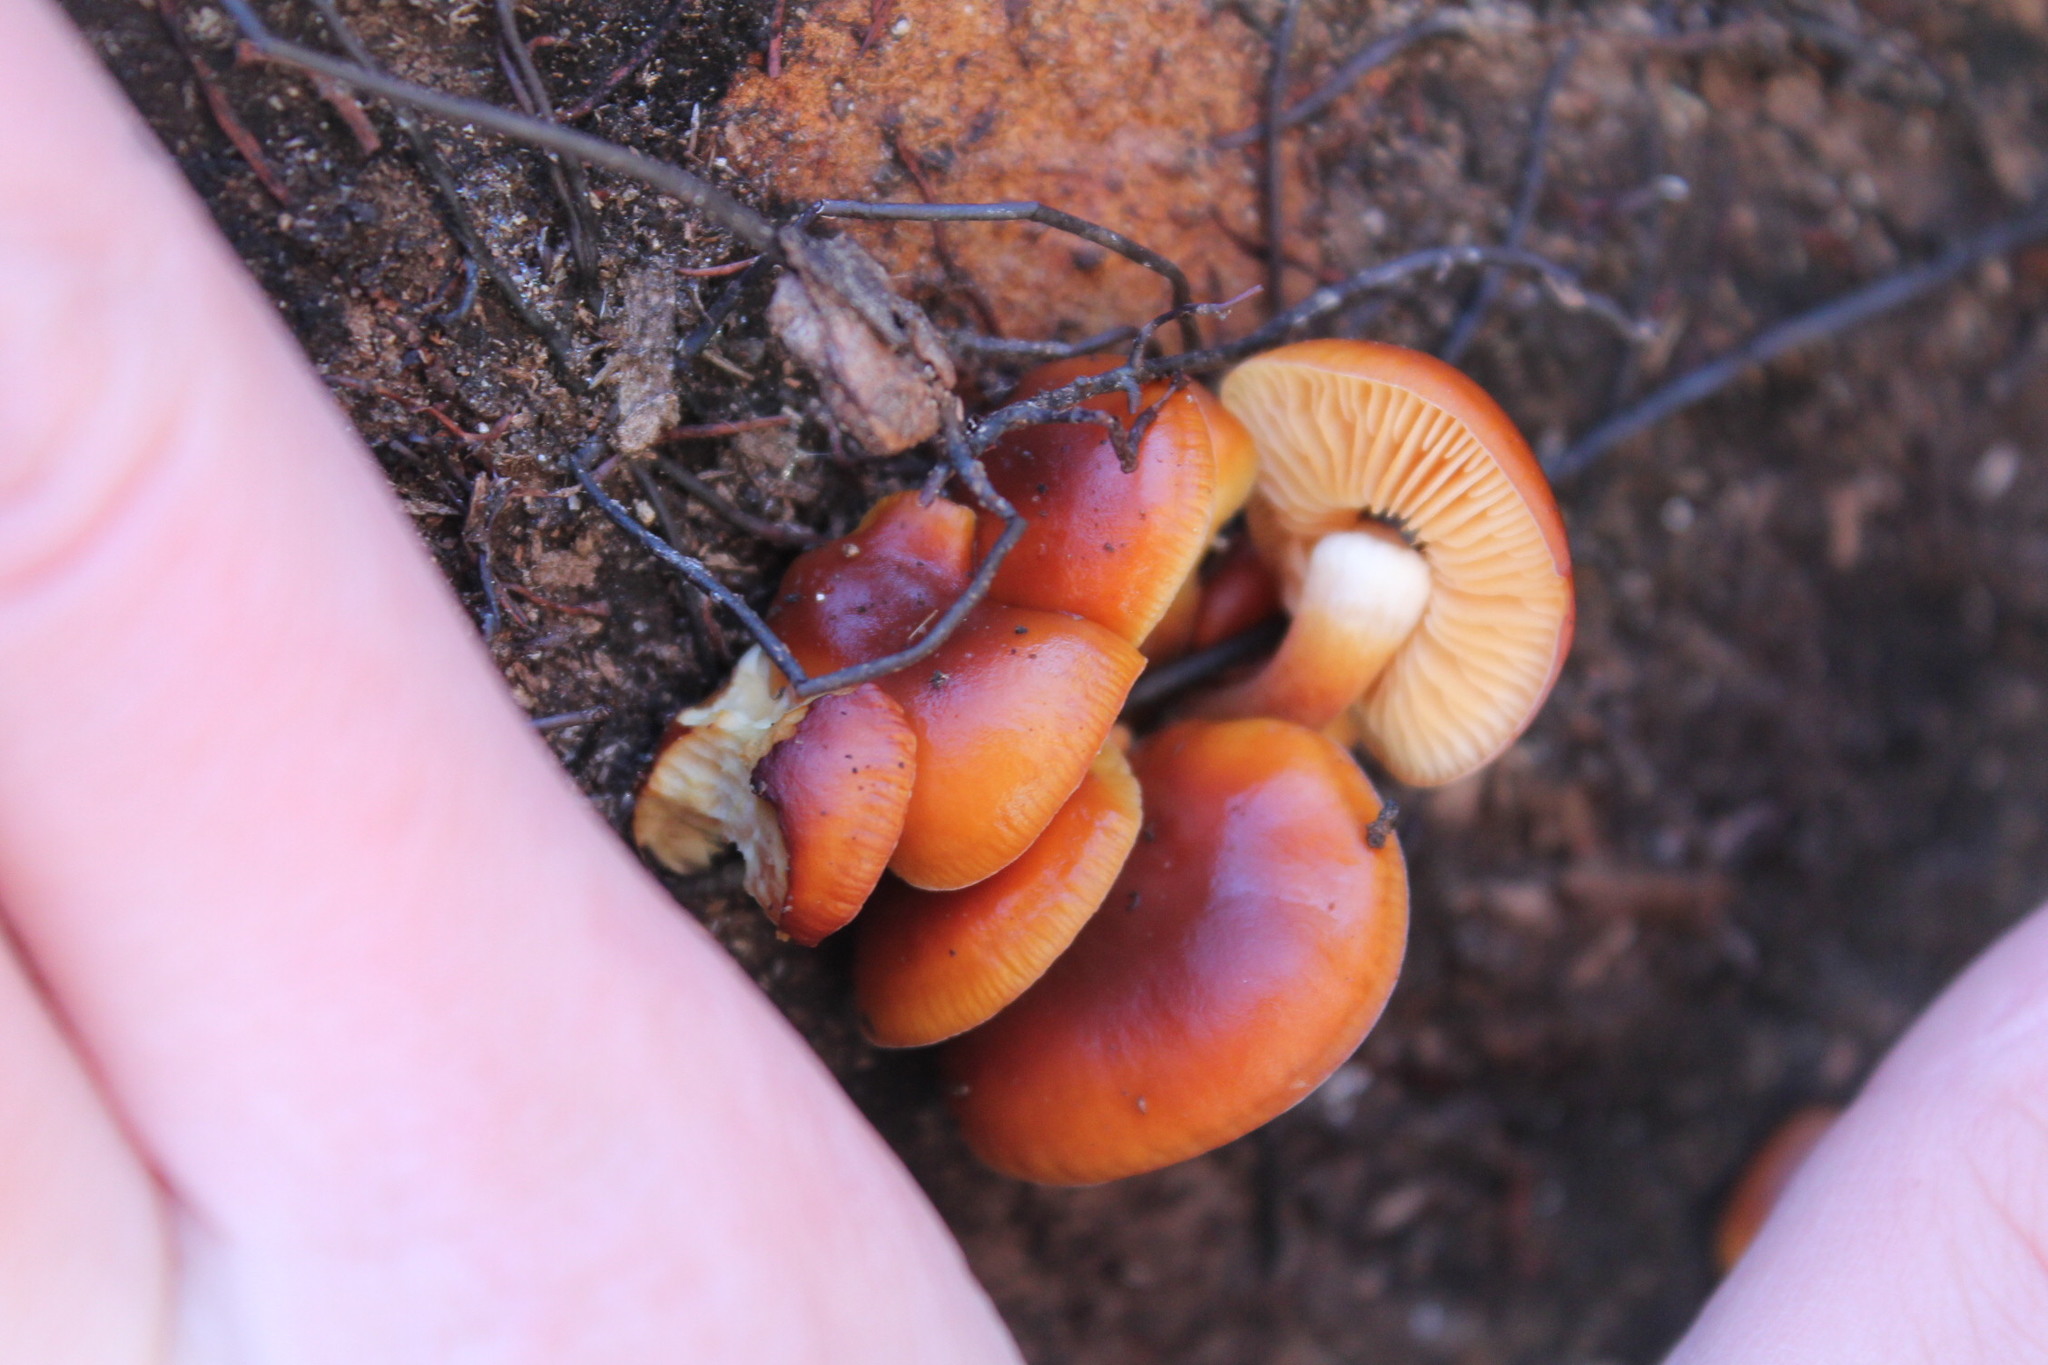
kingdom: Fungi
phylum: Basidiomycota
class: Agaricomycetes
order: Agaricales
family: Physalacriaceae
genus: Flammulina
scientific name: Flammulina velutipes
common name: Velvet shank
